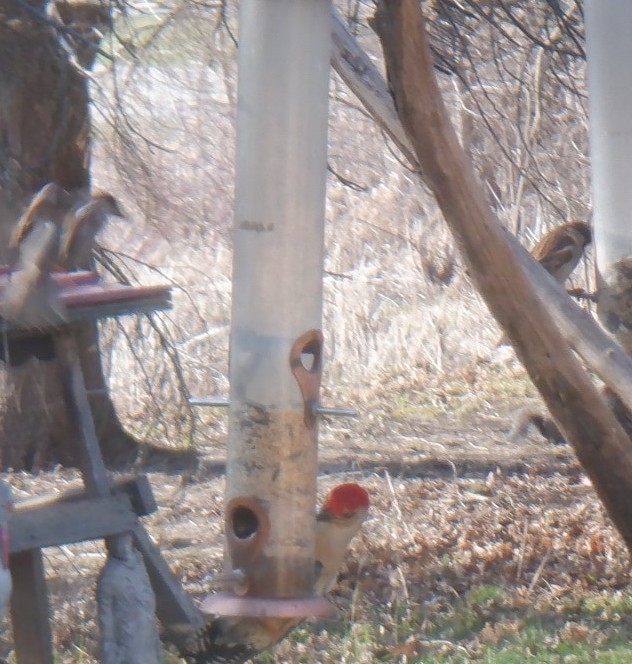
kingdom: Animalia
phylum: Chordata
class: Aves
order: Piciformes
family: Picidae
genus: Melanerpes
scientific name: Melanerpes carolinus
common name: Red-bellied woodpecker
